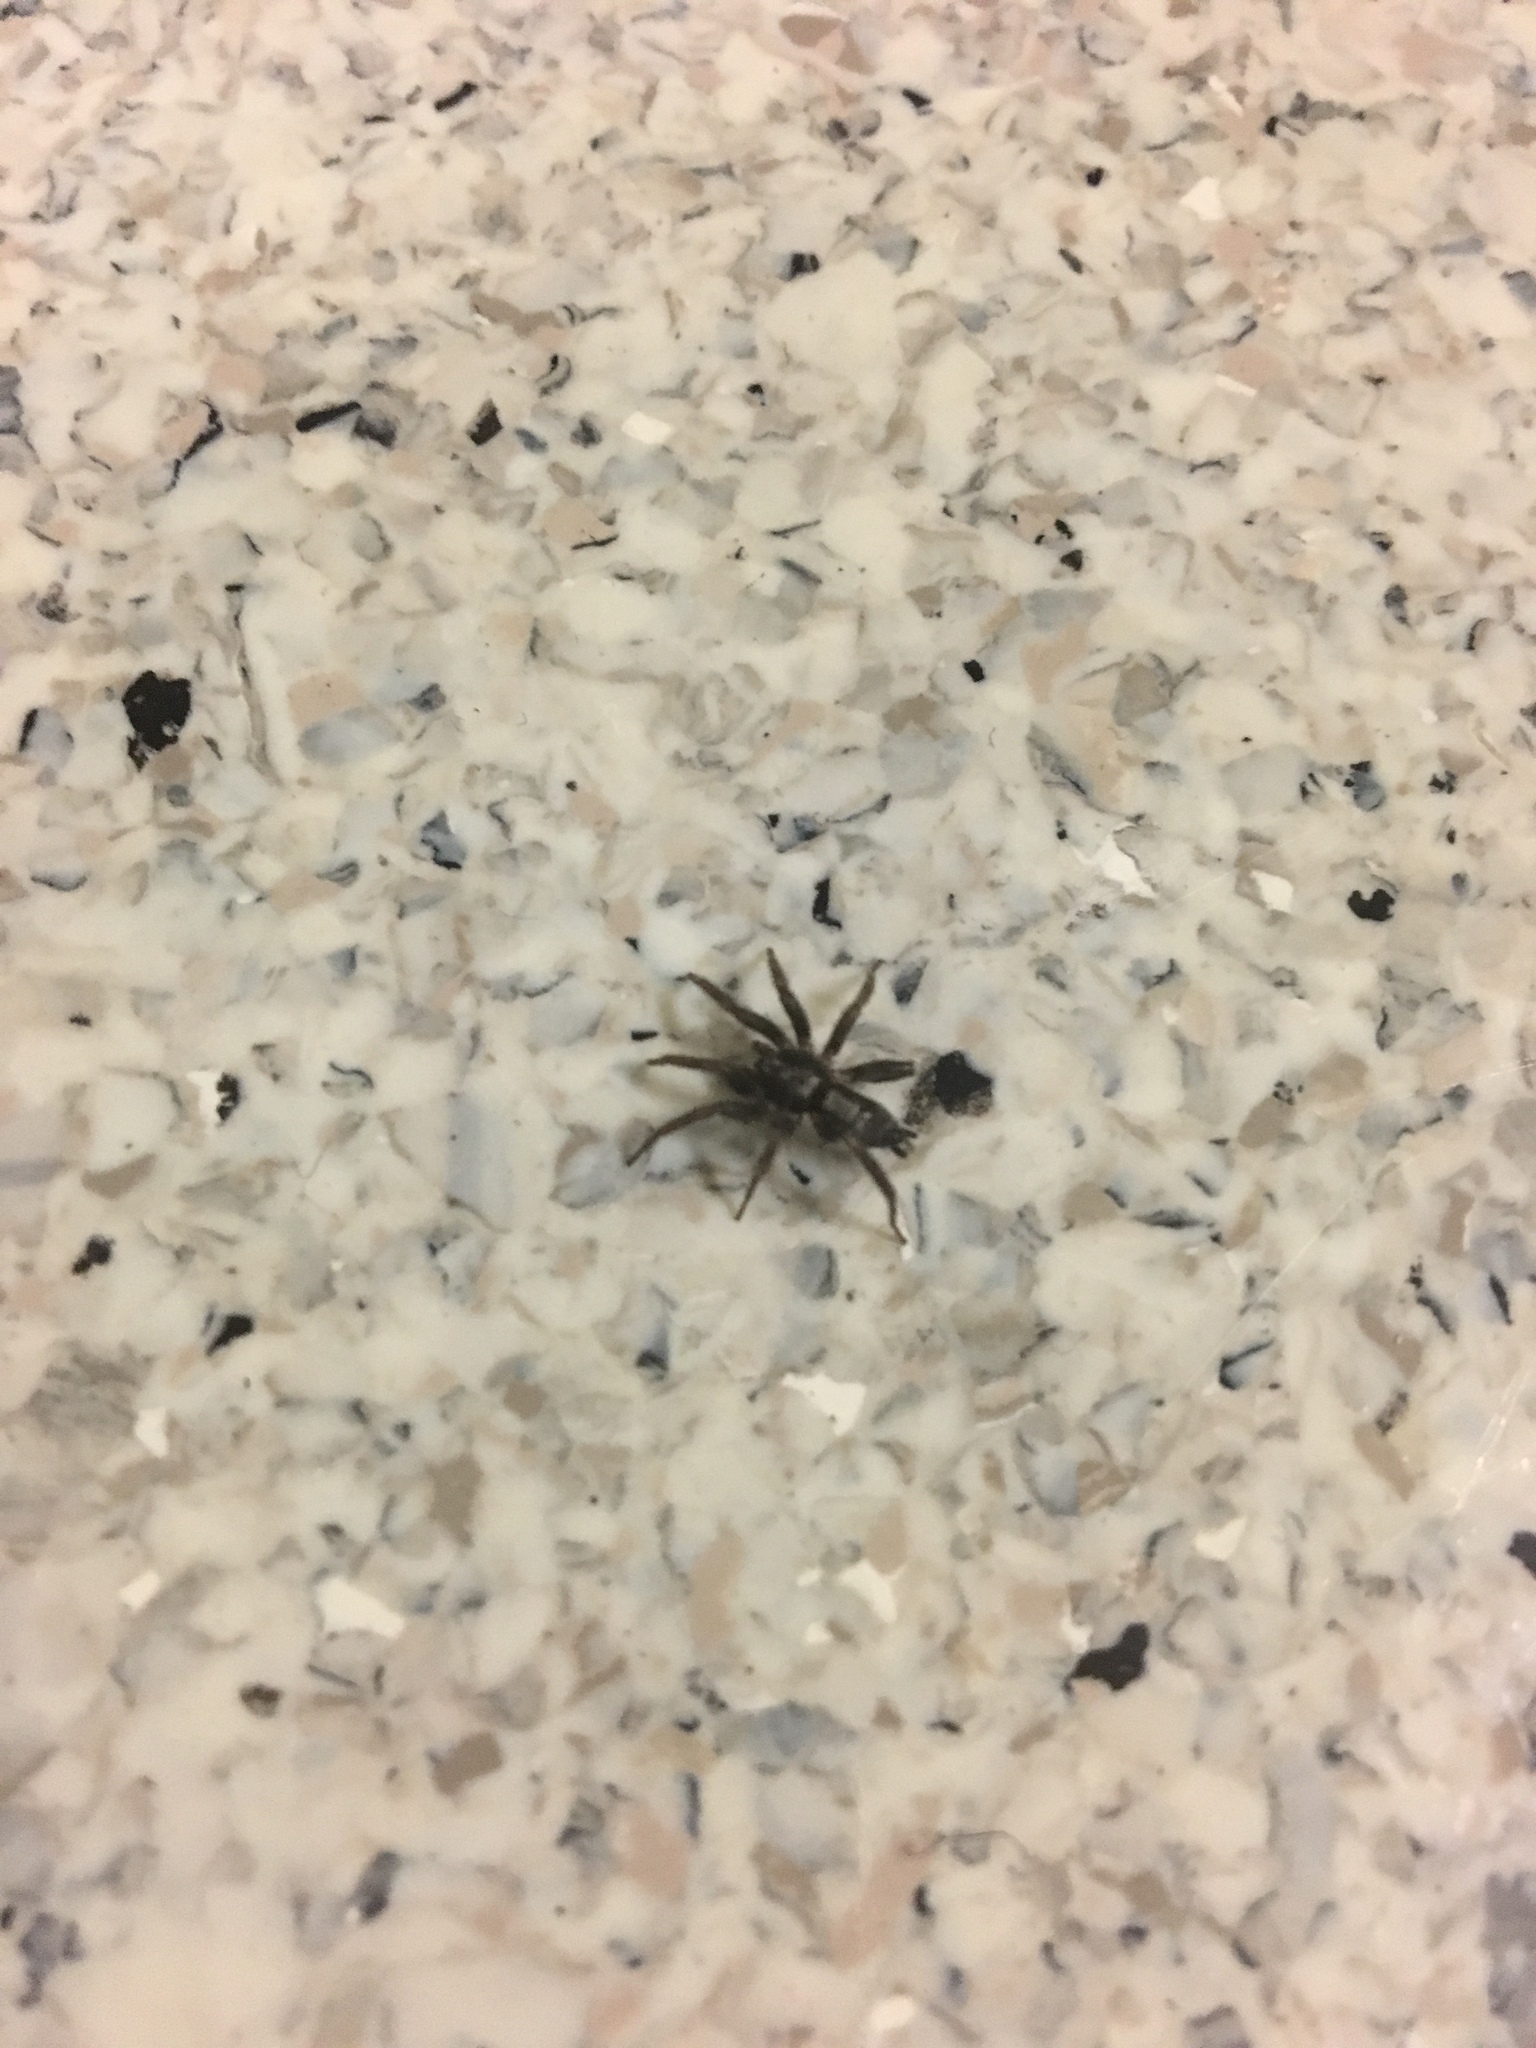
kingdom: Animalia
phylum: Arthropoda
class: Arachnida
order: Araneae
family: Gnaphosidae
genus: Herpyllus
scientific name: Herpyllus ecclesiasticus
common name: Eastern parson spider
